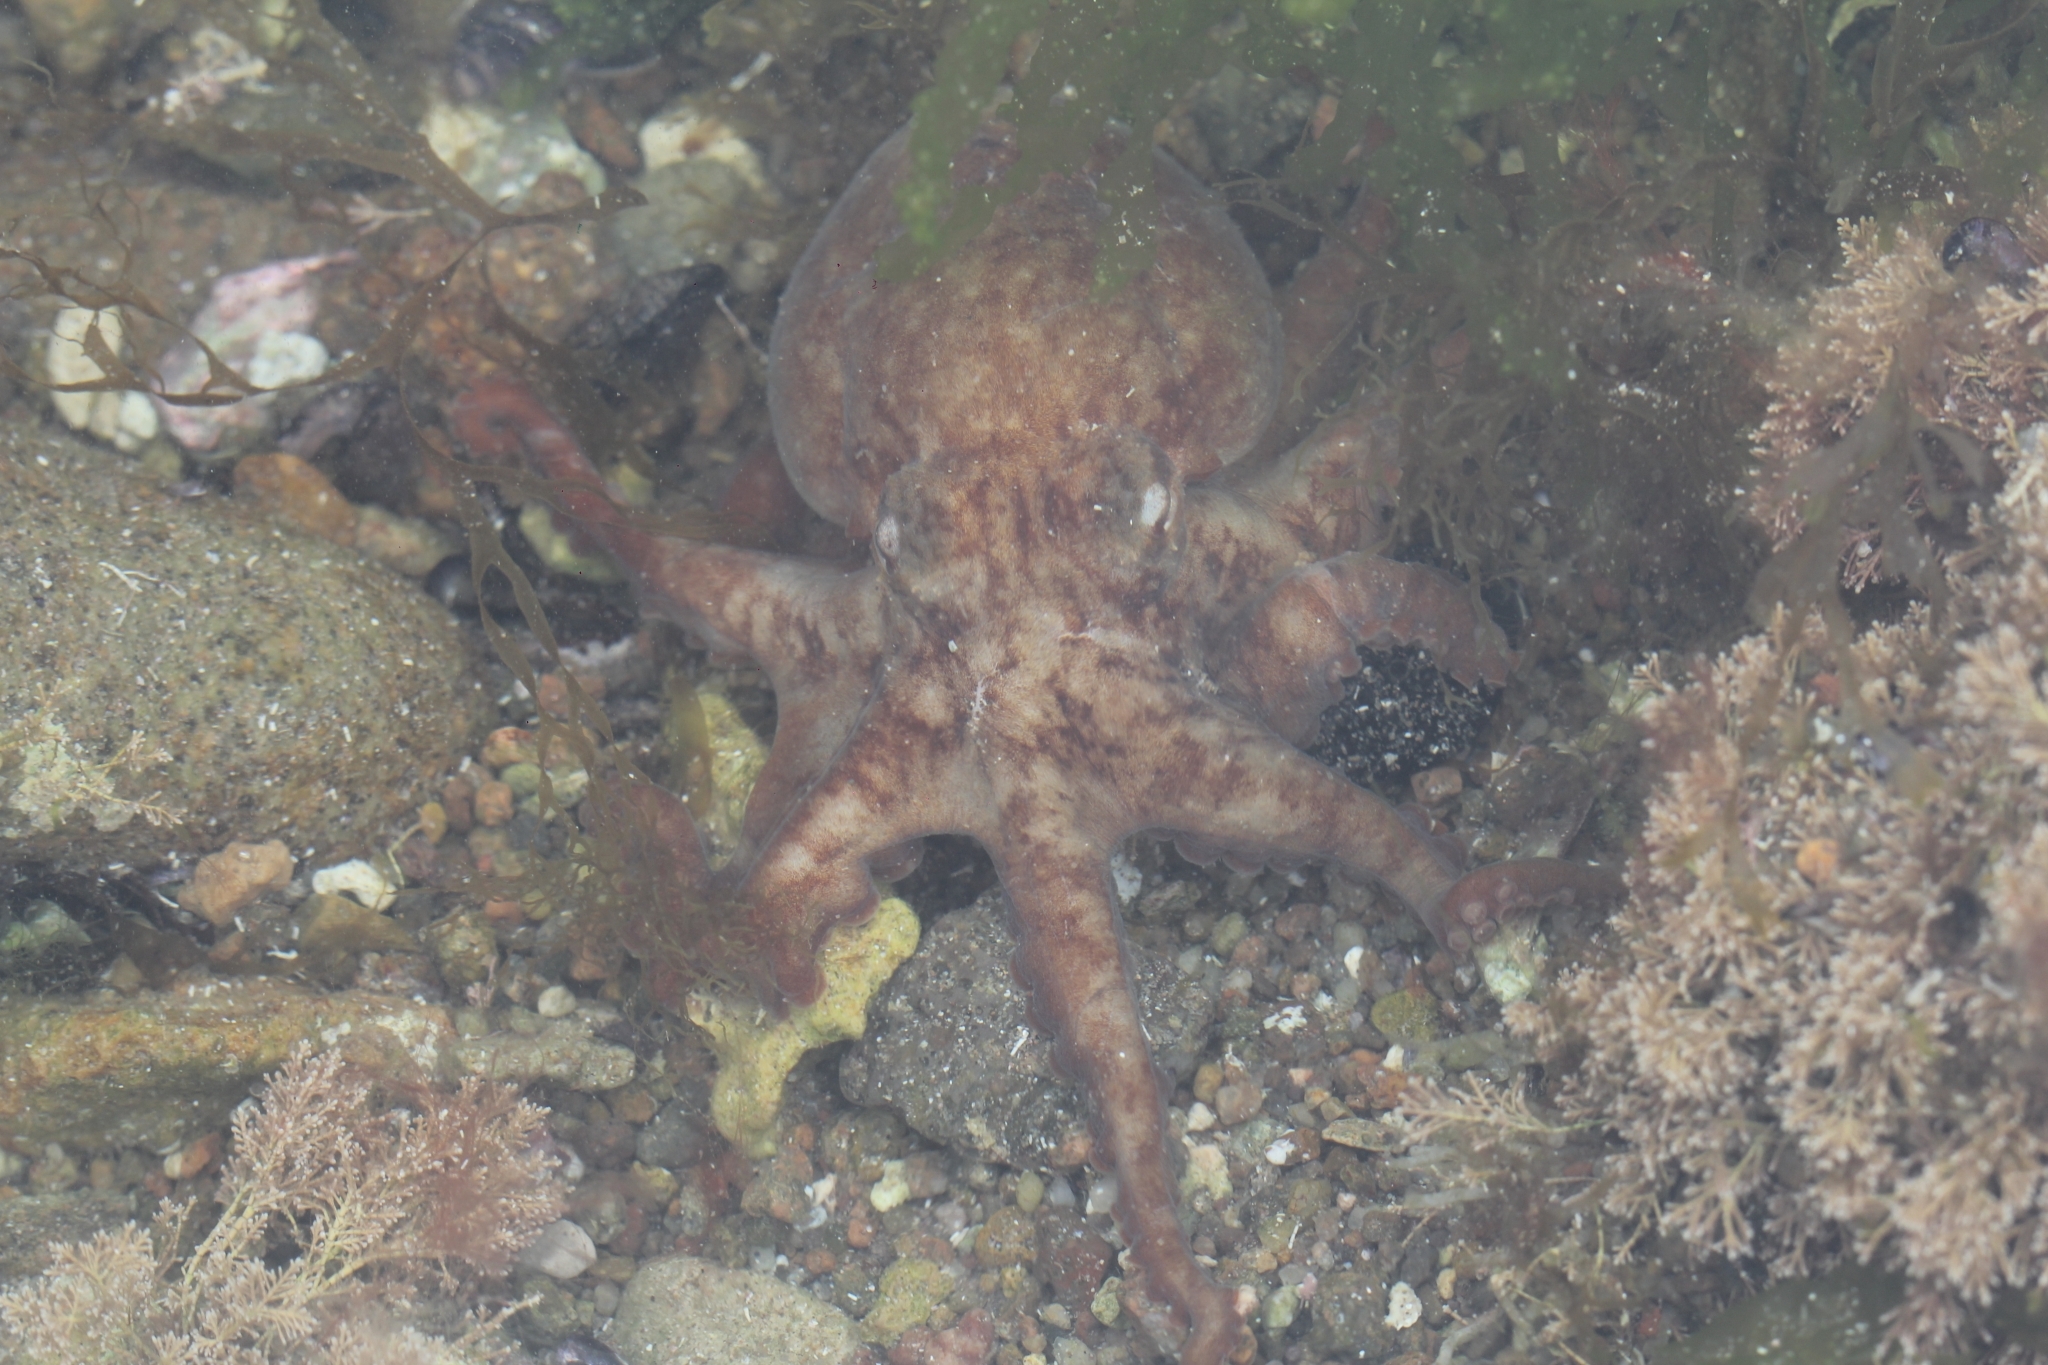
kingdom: Animalia
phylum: Mollusca
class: Cephalopoda
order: Octopoda
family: Octopodidae
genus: Octopus
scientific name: Octopus tehuelchus
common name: Tehuelche octopus
